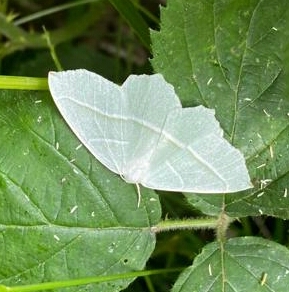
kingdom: Animalia
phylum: Arthropoda
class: Insecta
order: Lepidoptera
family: Geometridae
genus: Campaea
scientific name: Campaea margaritaria
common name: Light emerald
